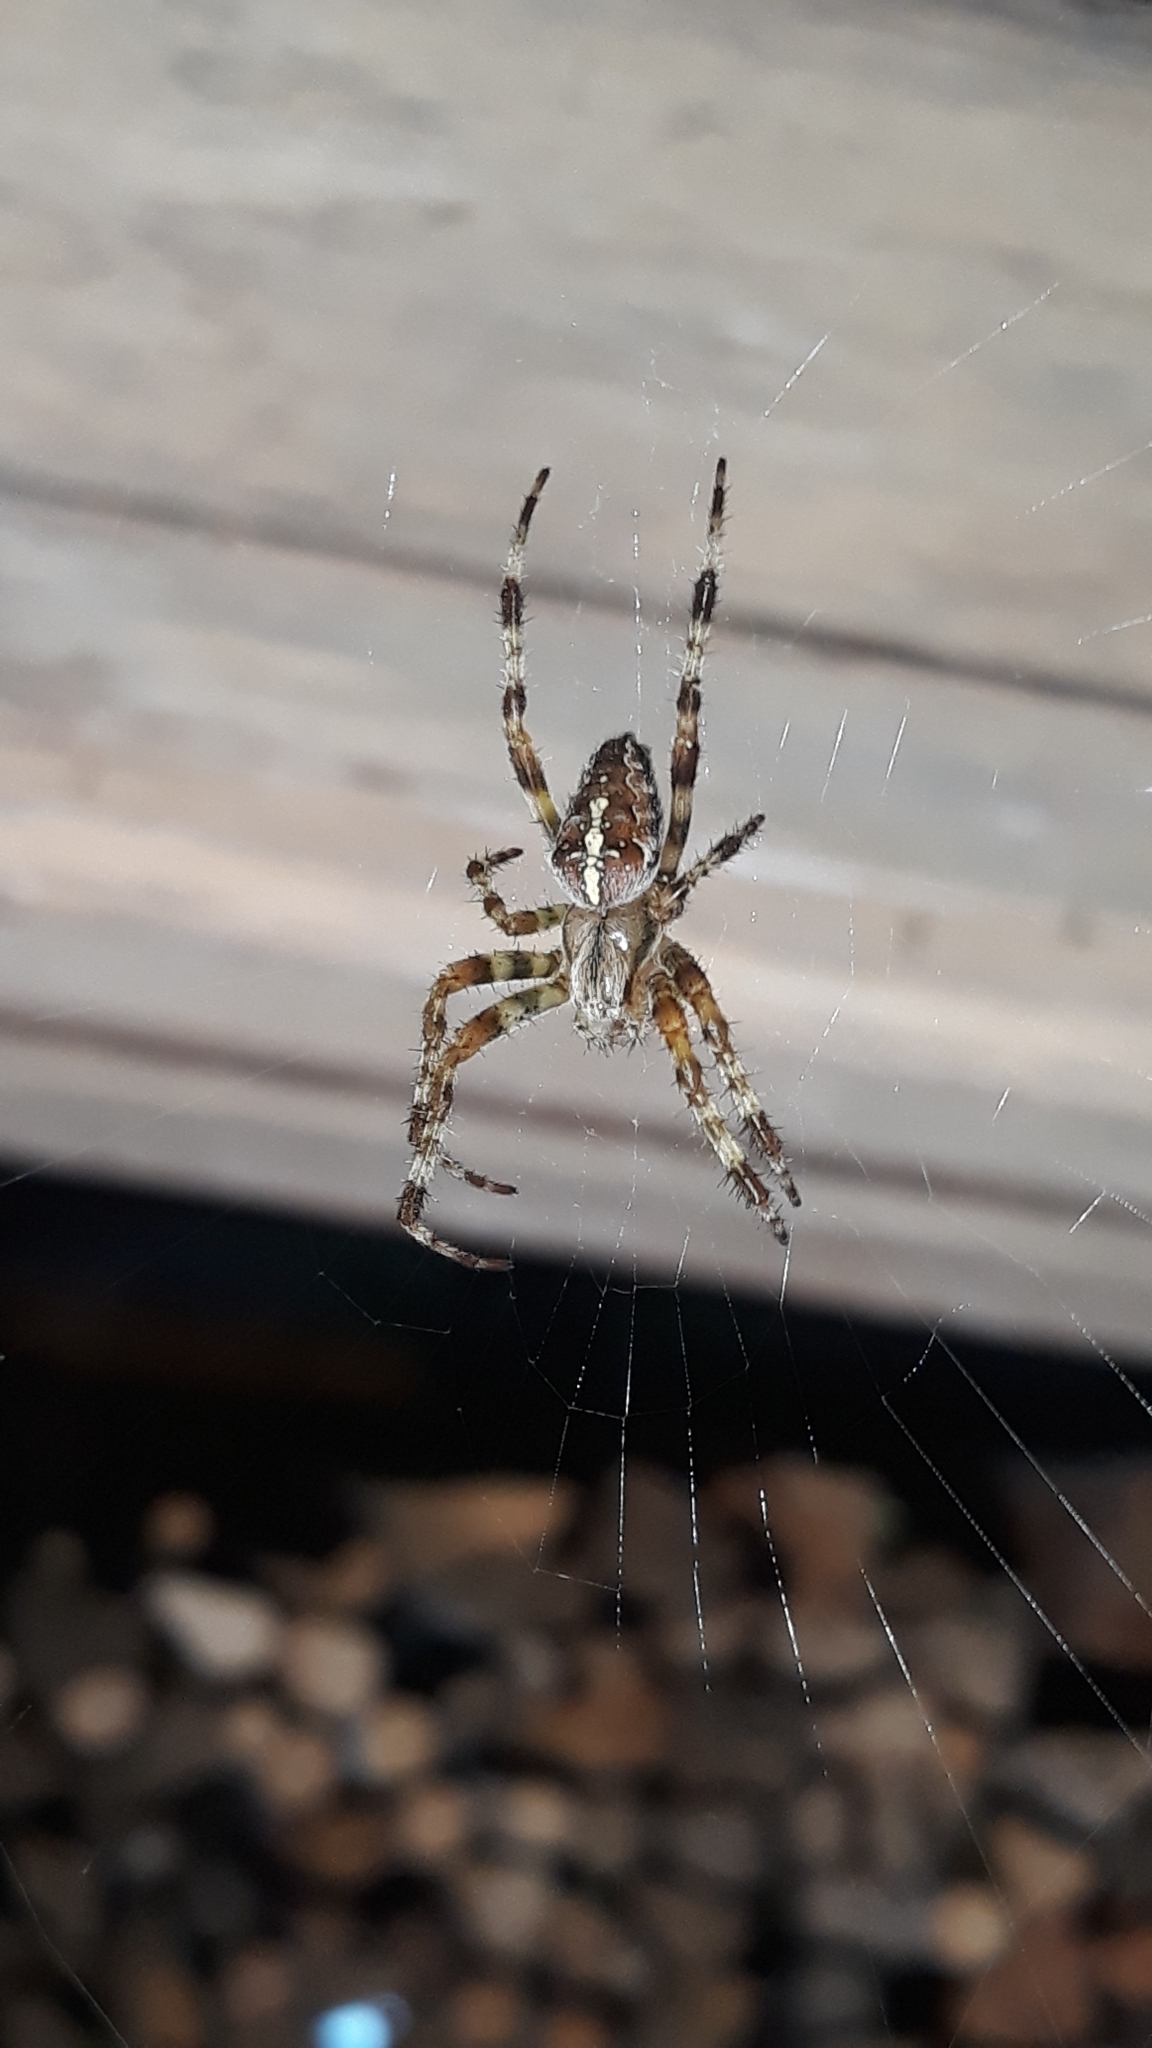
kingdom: Animalia
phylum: Arthropoda
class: Arachnida
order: Araneae
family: Araneidae
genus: Araneus
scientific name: Araneus diadematus
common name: Cross orbweaver
